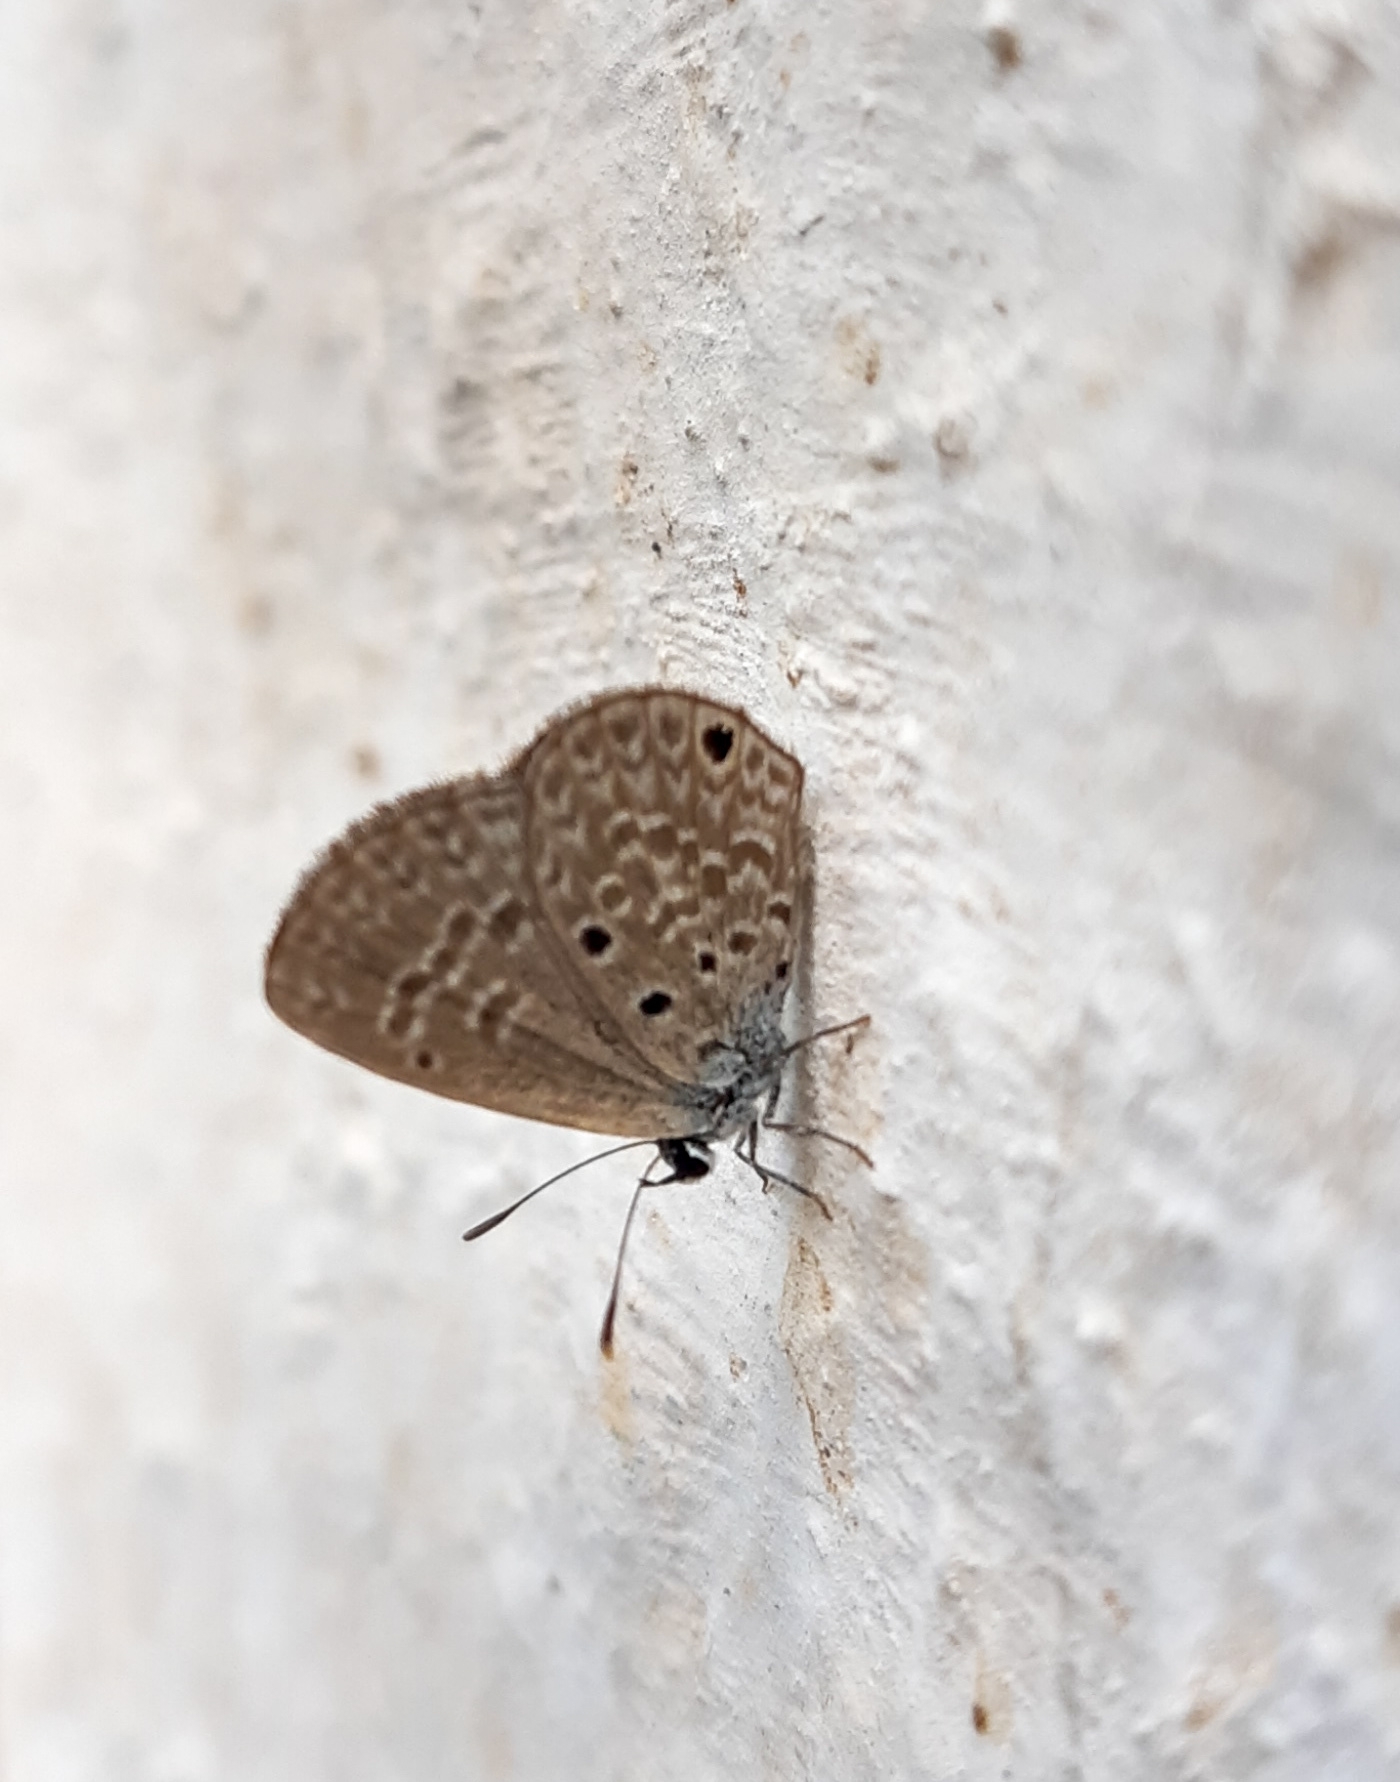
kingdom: Animalia
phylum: Arthropoda
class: Insecta
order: Lepidoptera
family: Lycaenidae
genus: Hemiargus
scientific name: Hemiargus hanno
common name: Common blue
